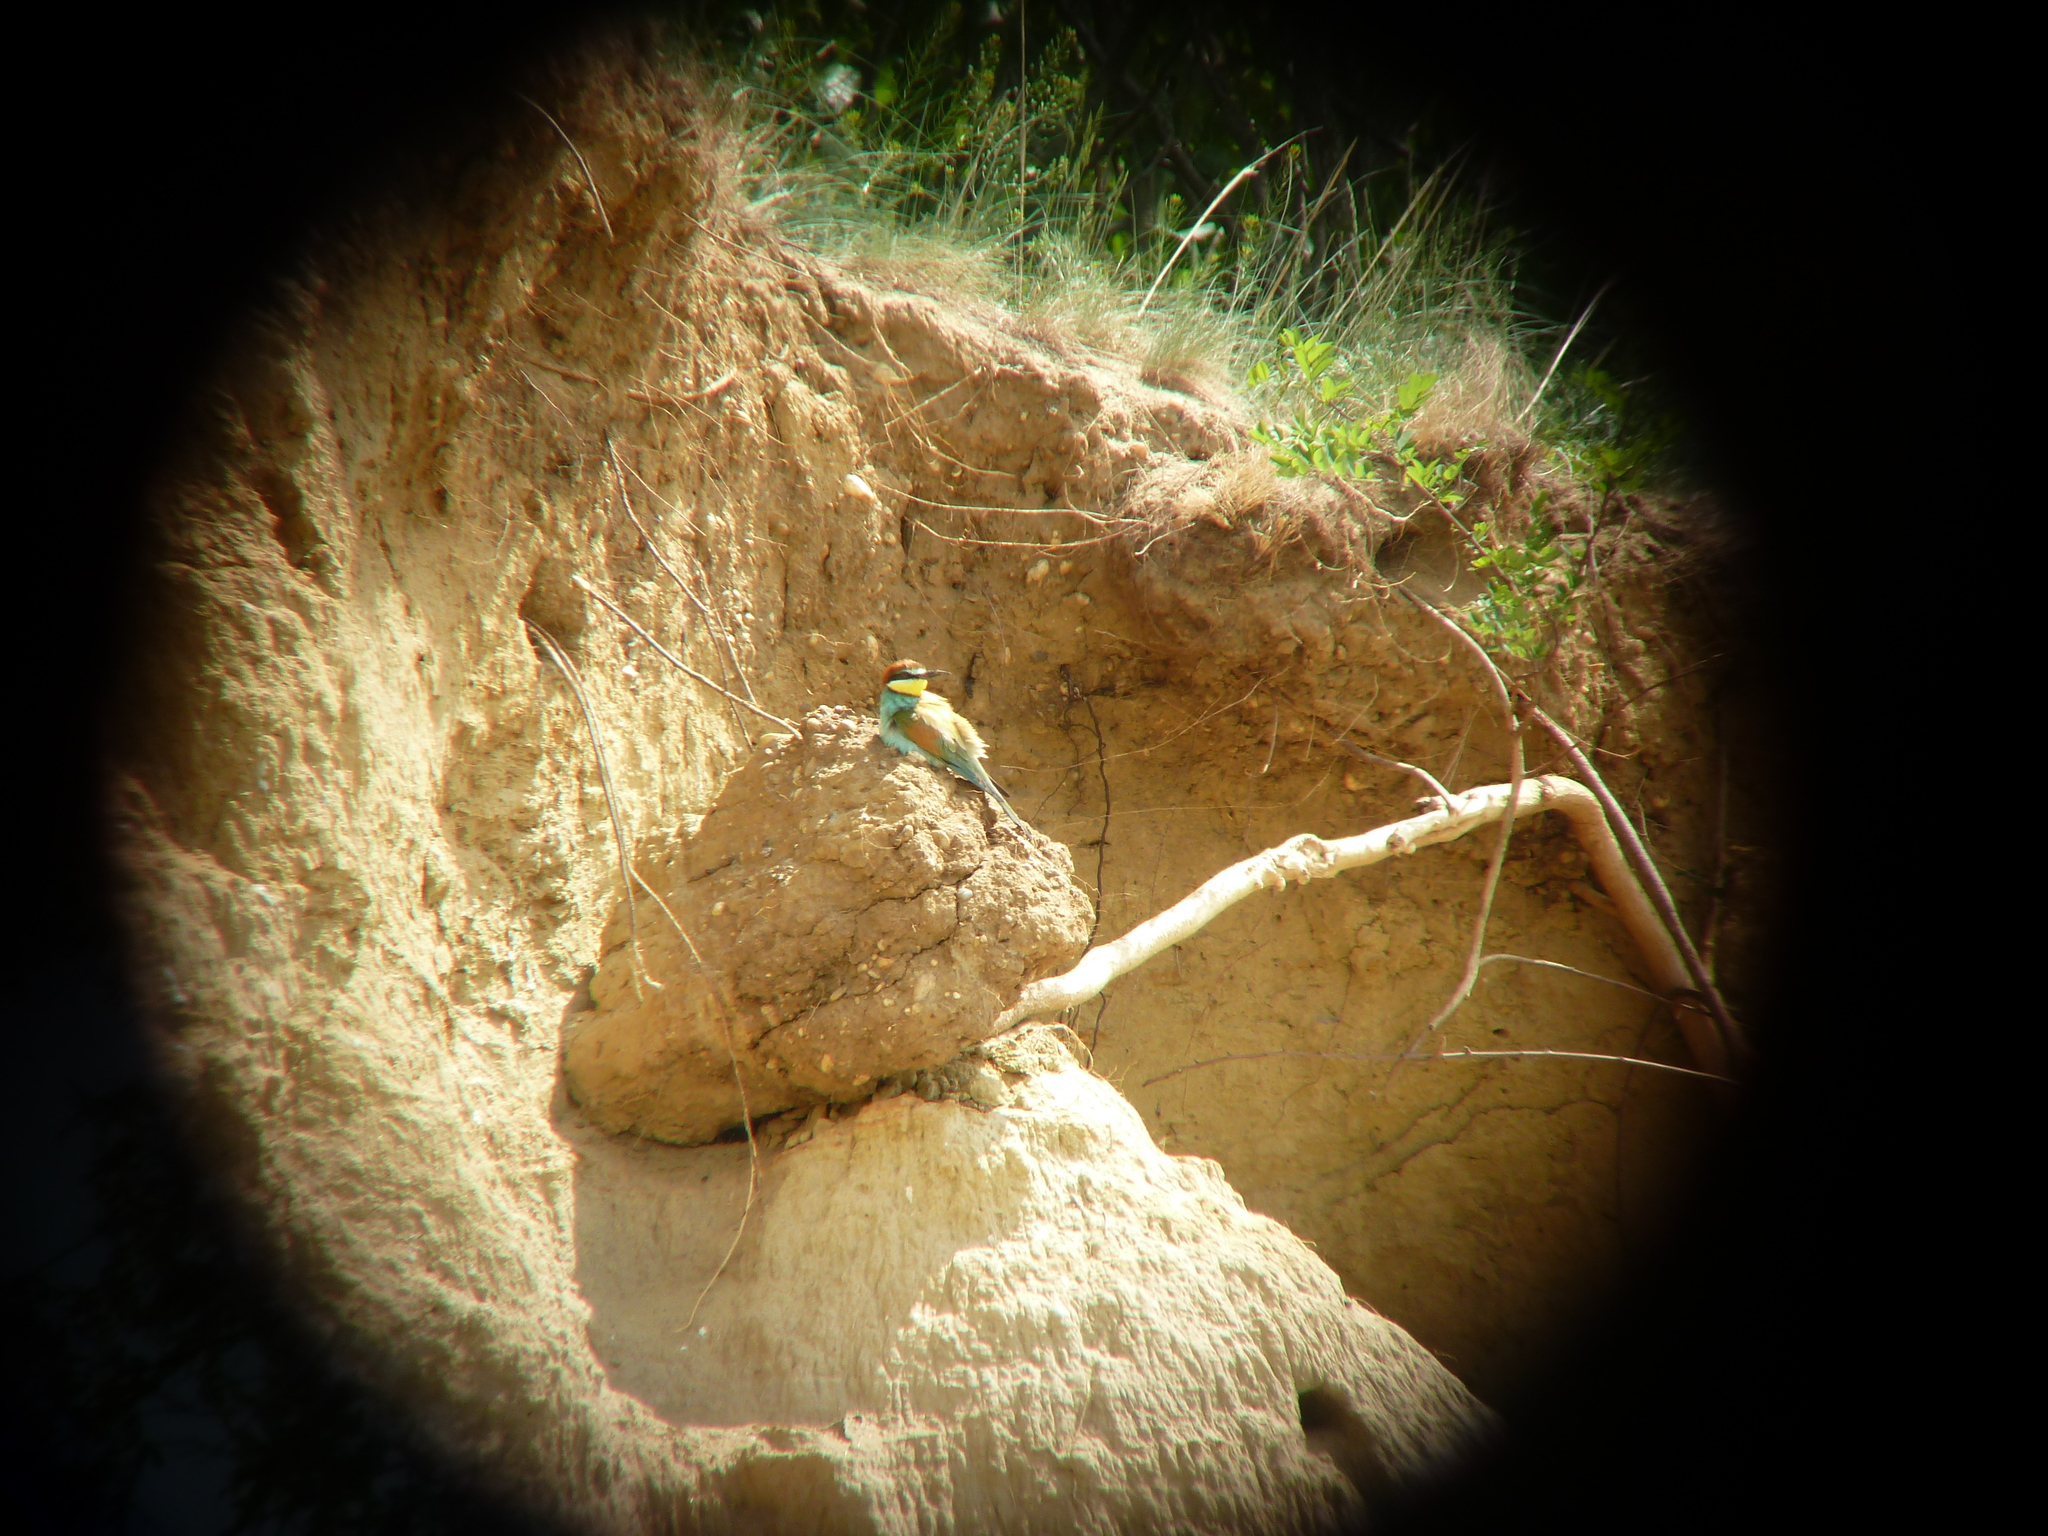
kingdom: Animalia
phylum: Chordata
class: Aves
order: Coraciiformes
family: Meropidae
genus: Merops
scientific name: Merops apiaster
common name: European bee-eater
